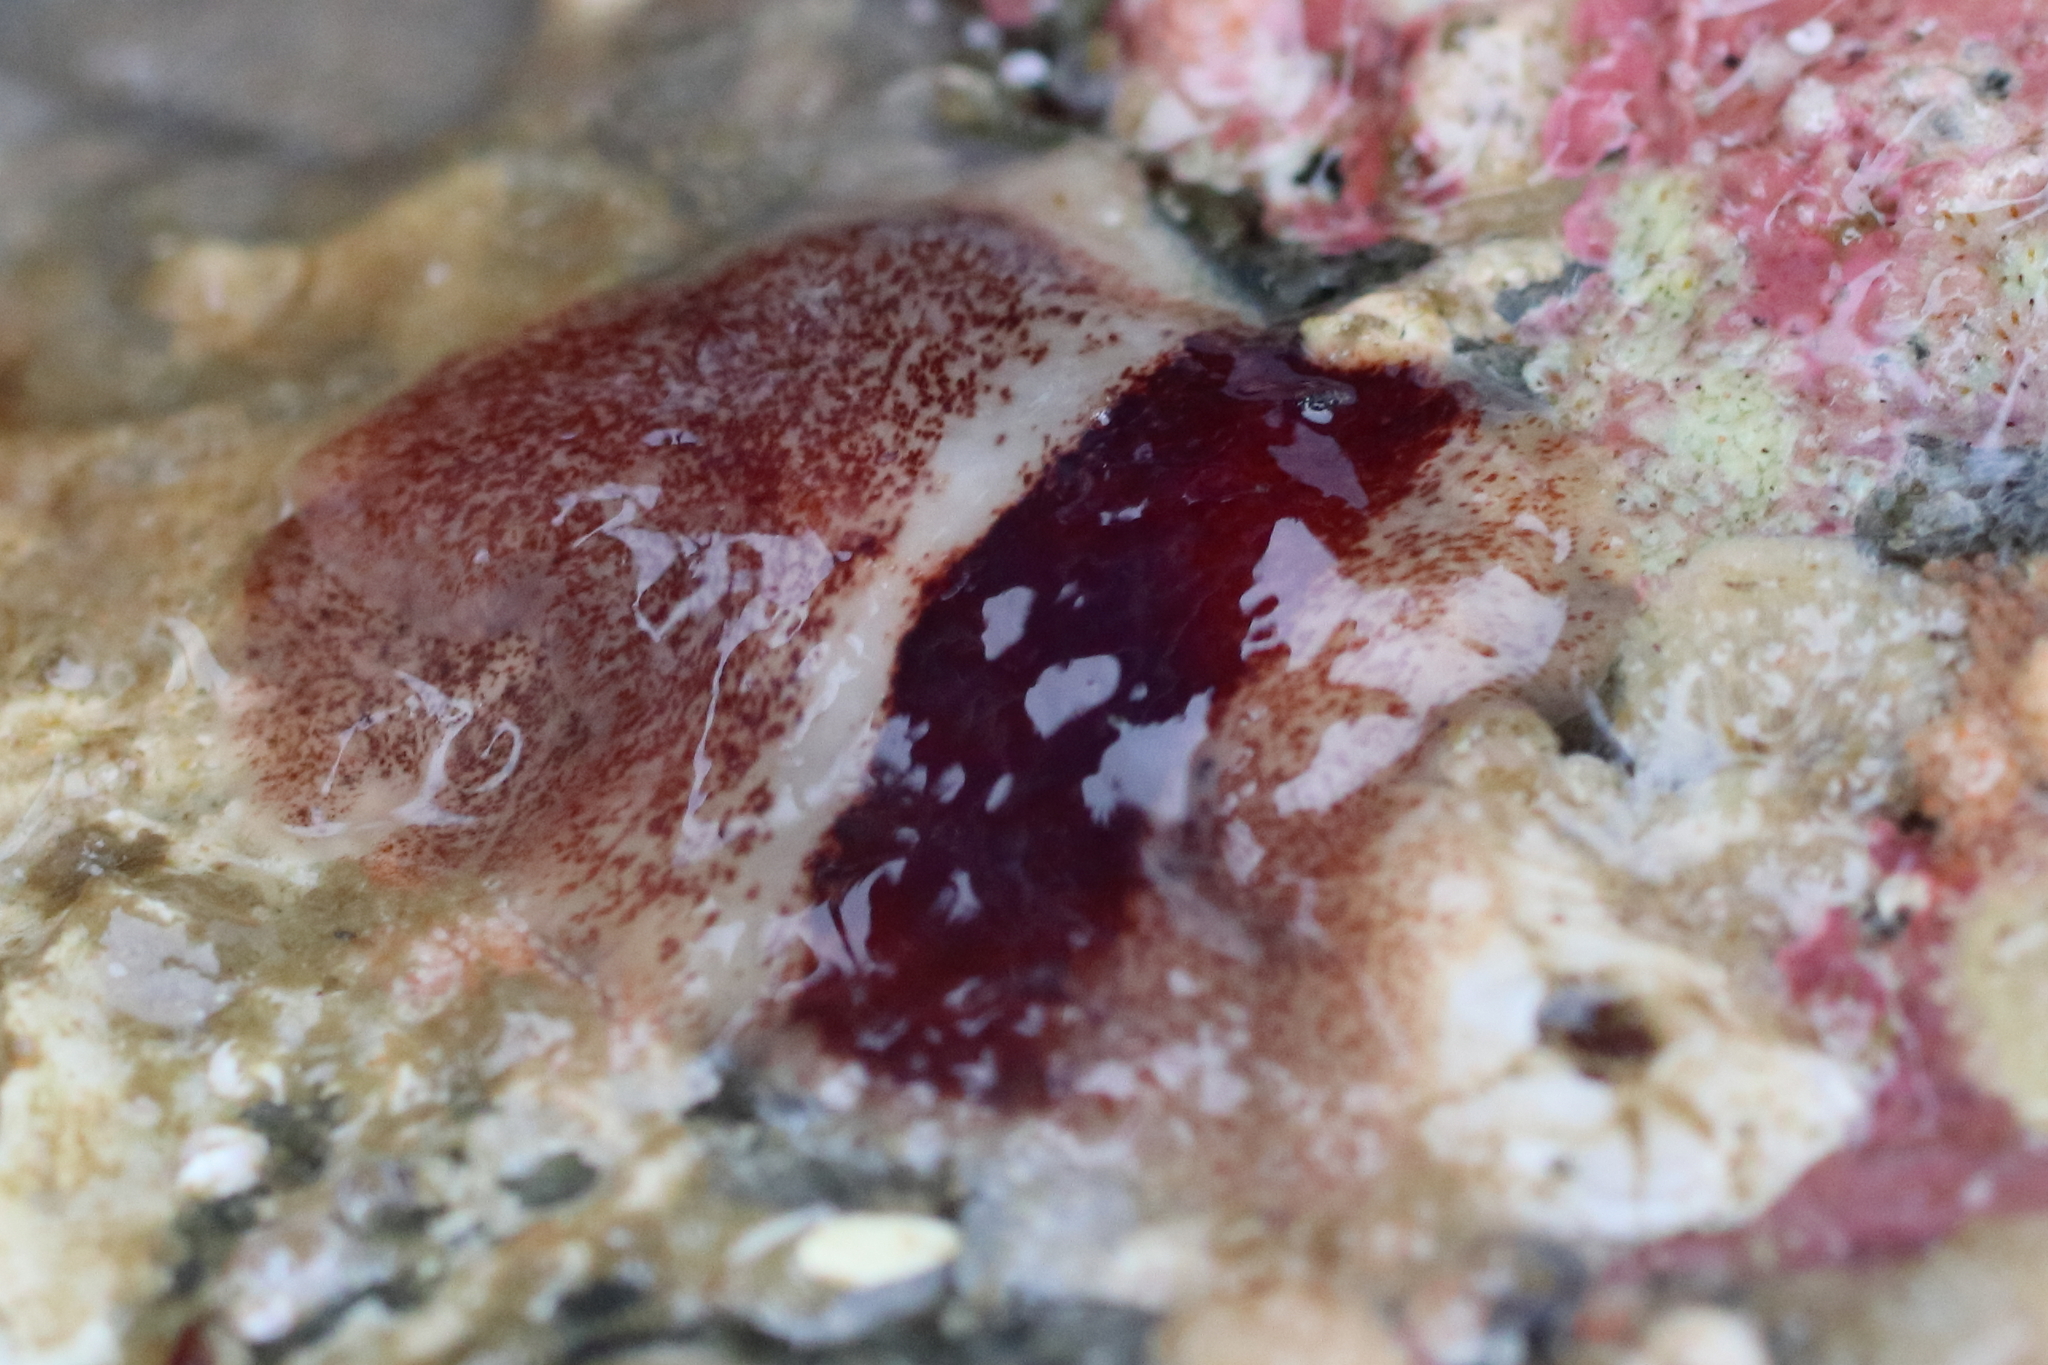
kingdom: Animalia
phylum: Platyhelminthes
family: Notocomplanidae
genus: Notocomplana
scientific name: Notocomplana sanguinea
